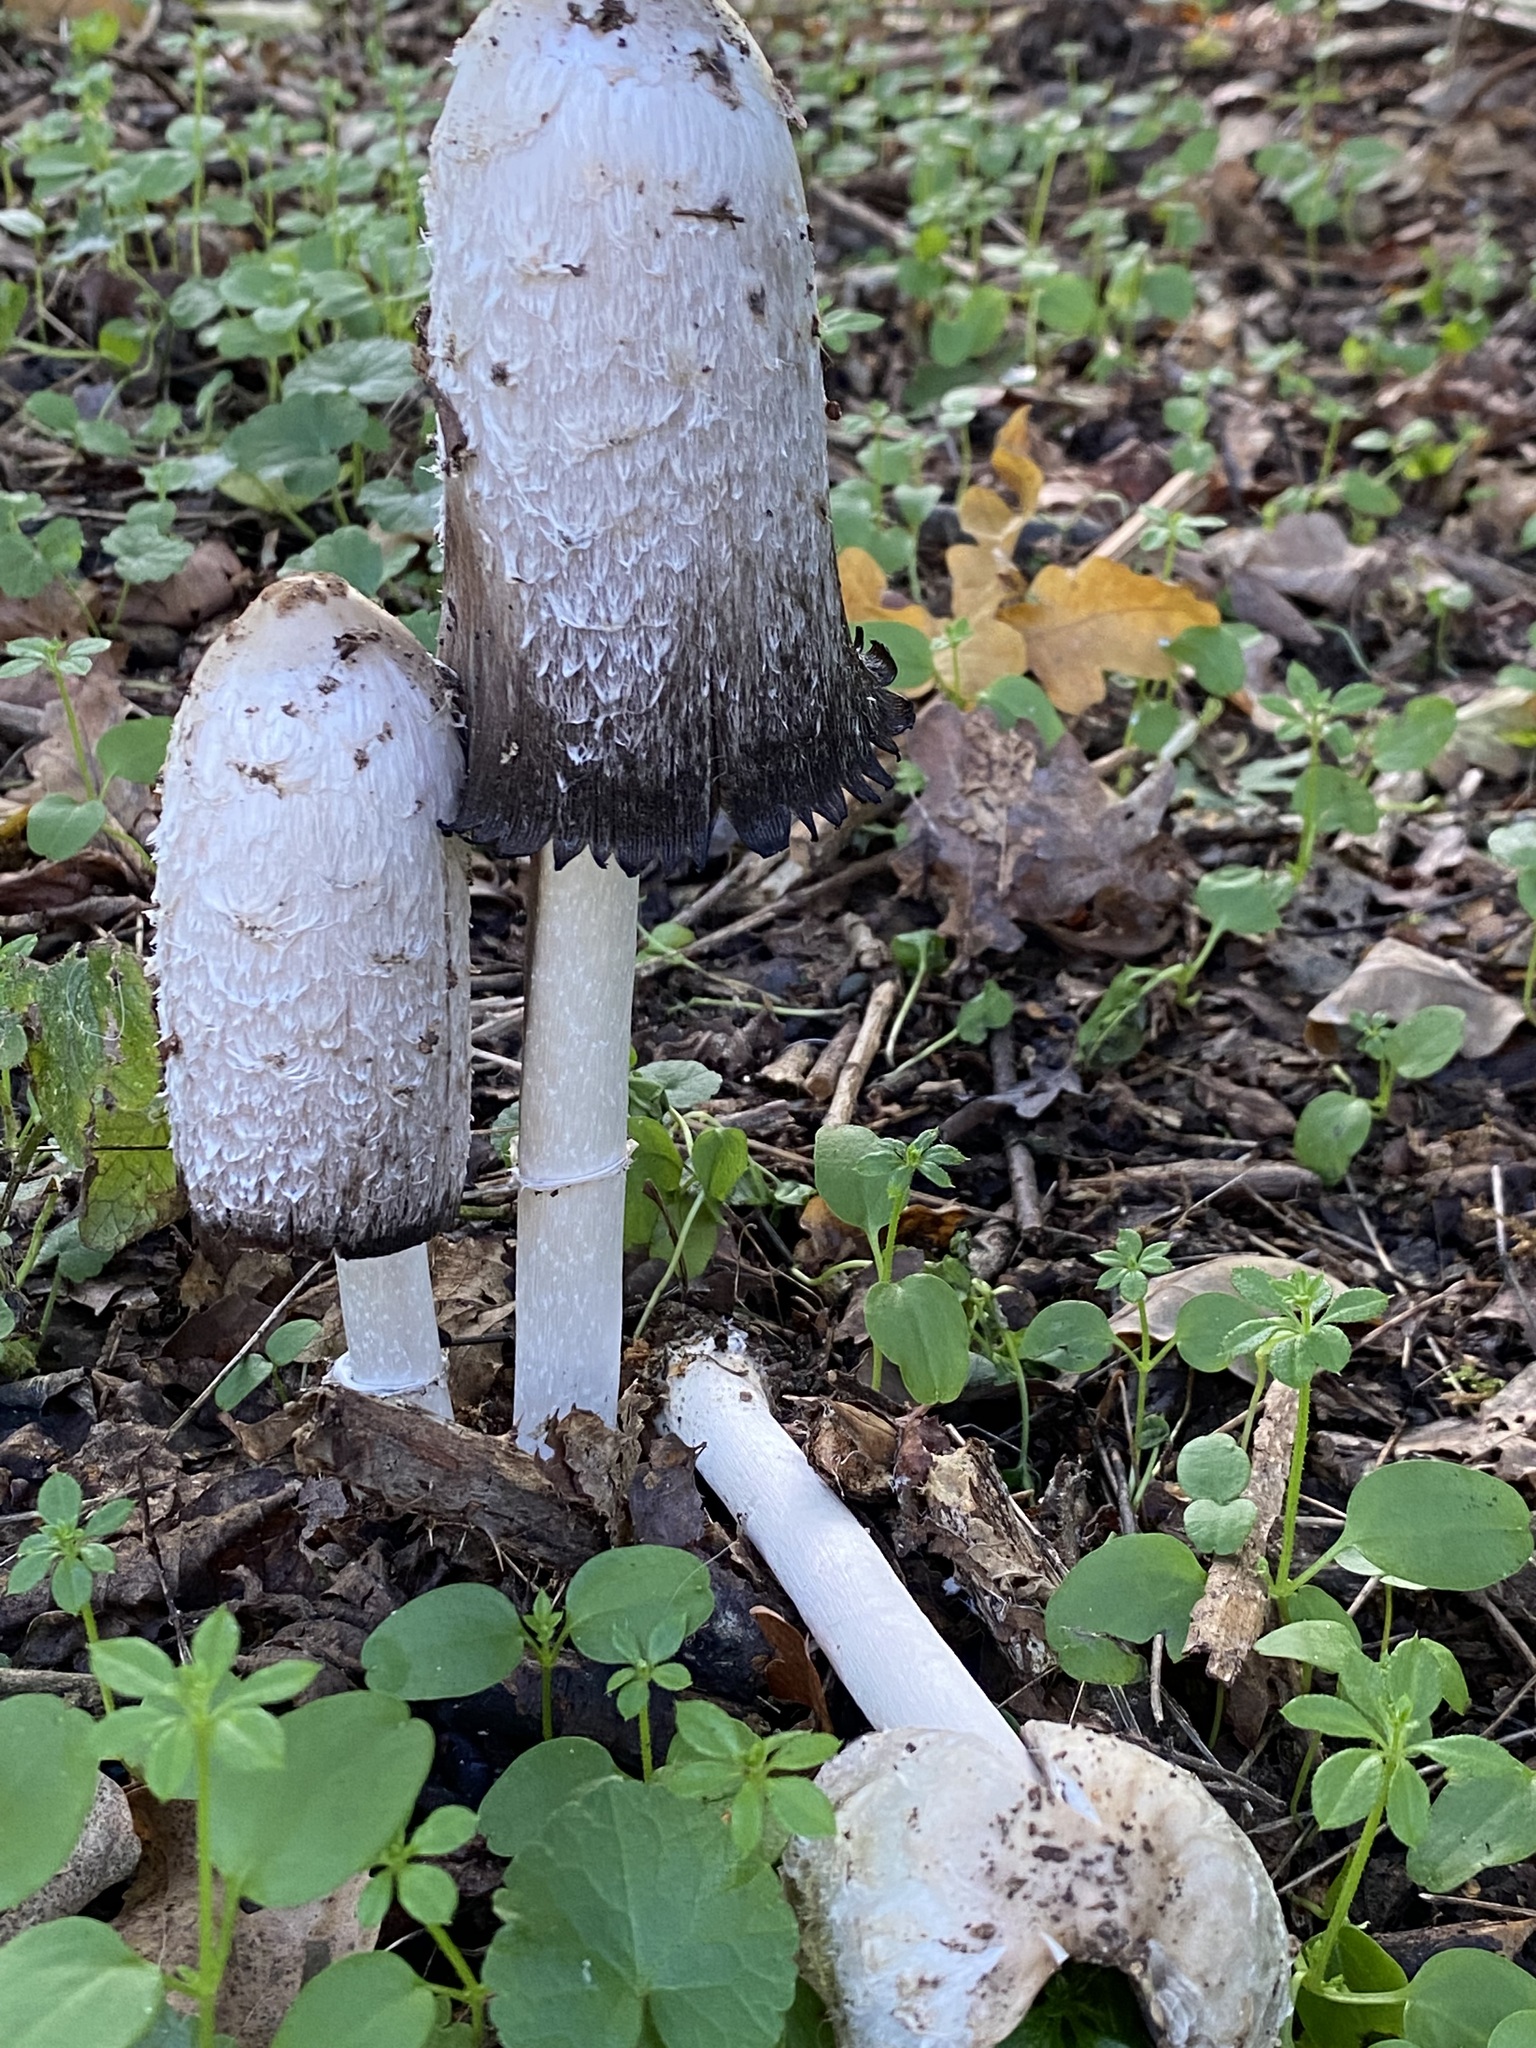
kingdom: Fungi
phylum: Basidiomycota
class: Agaricomycetes
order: Agaricales
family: Agaricaceae
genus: Coprinus
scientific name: Coprinus comatus
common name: Lawyer's wig
